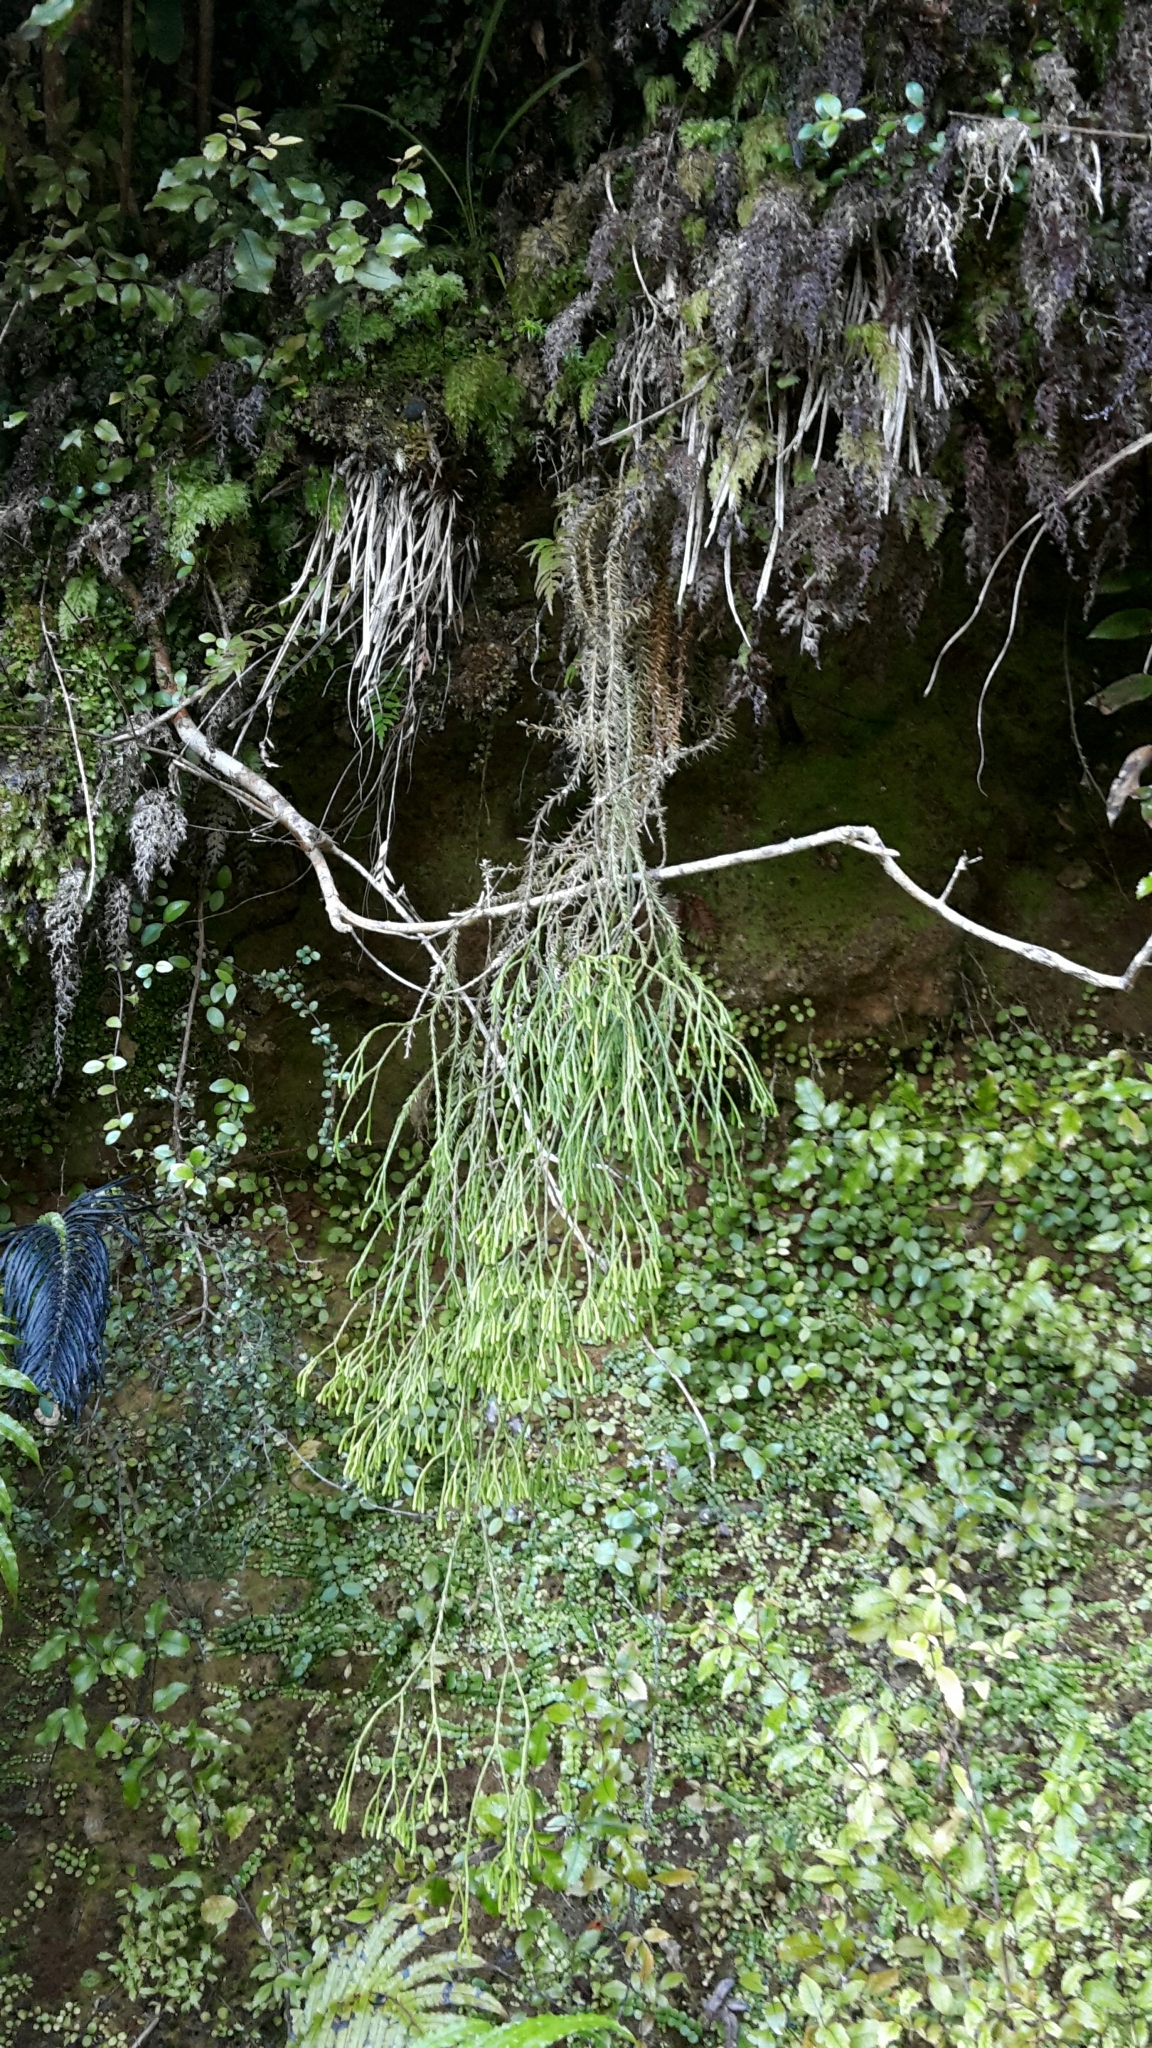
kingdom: Plantae
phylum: Tracheophyta
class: Lycopodiopsida
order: Lycopodiales
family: Lycopodiaceae
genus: Phlegmariurus
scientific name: Phlegmariurus varius
